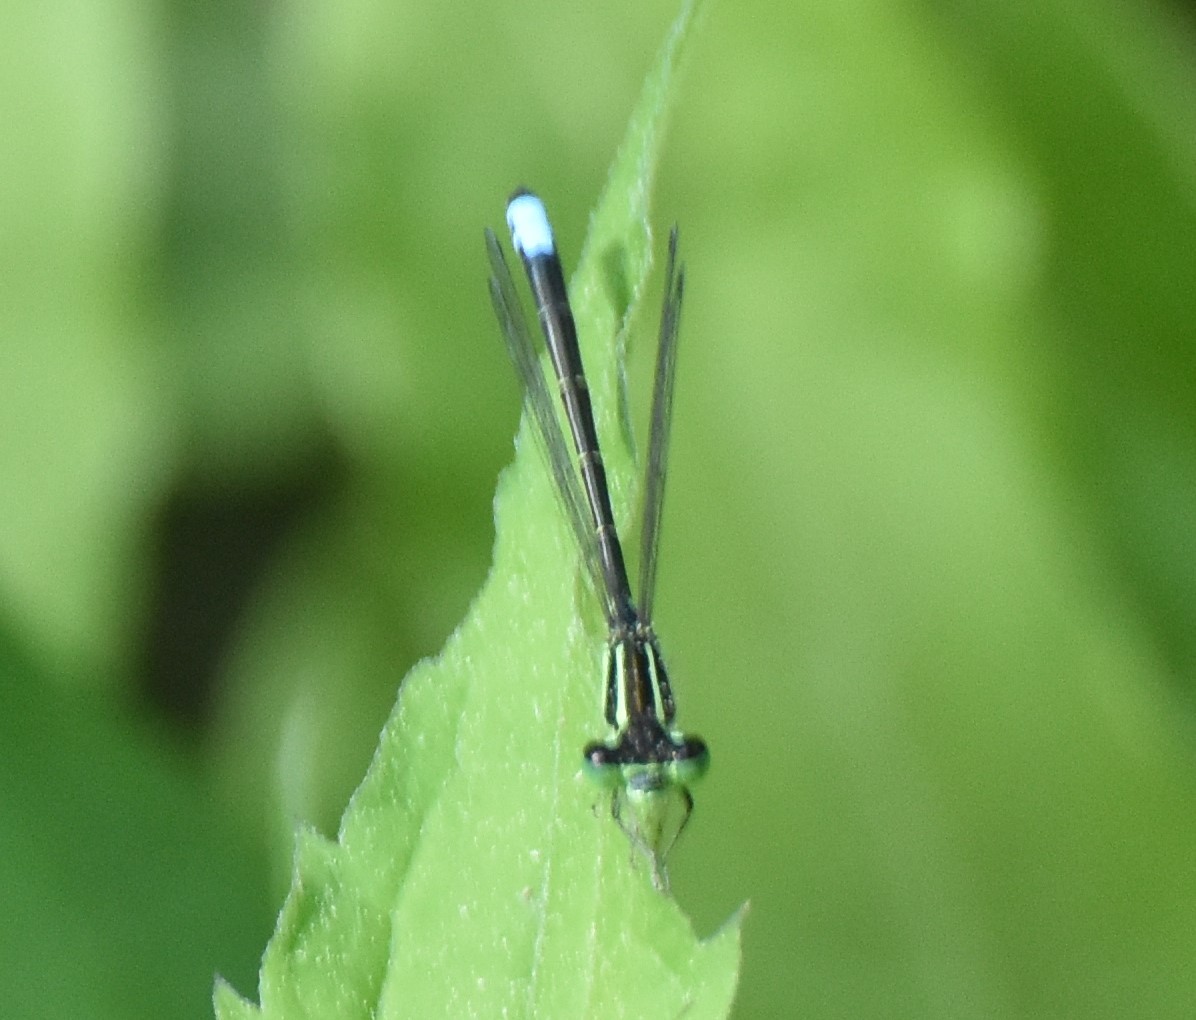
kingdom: Animalia
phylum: Arthropoda
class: Insecta
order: Odonata
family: Coenagrionidae
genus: Ischnura
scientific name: Ischnura verticalis
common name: Eastern forktail
